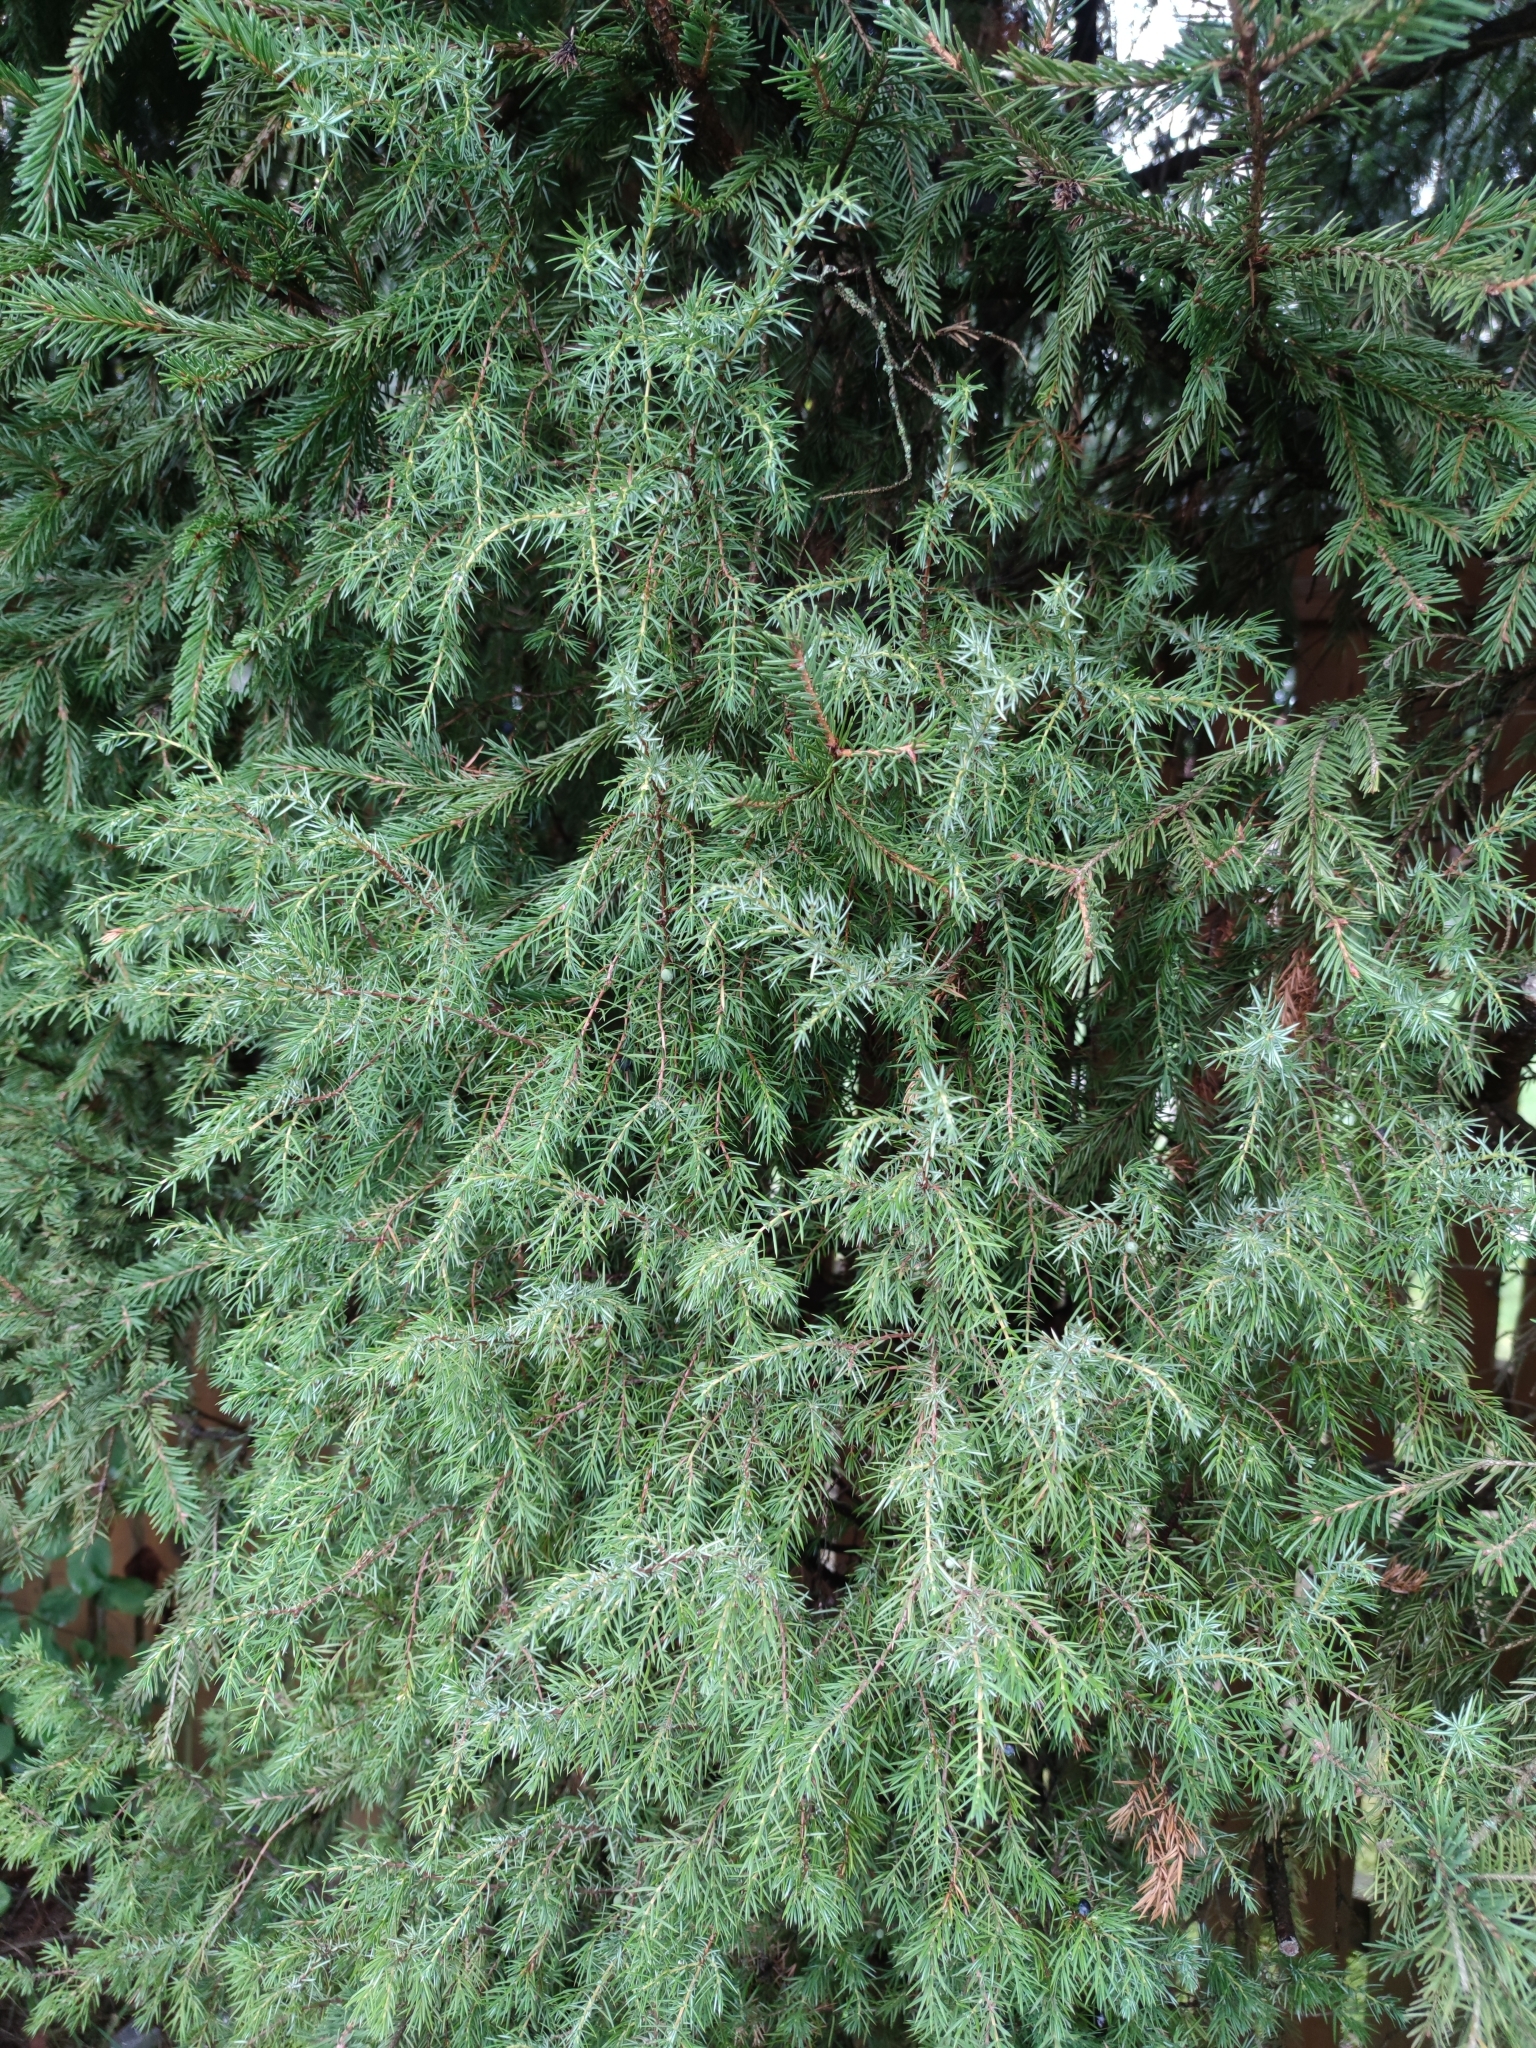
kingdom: Plantae
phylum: Tracheophyta
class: Pinopsida
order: Pinales
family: Cupressaceae
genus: Juniperus
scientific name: Juniperus communis
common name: Common juniper
